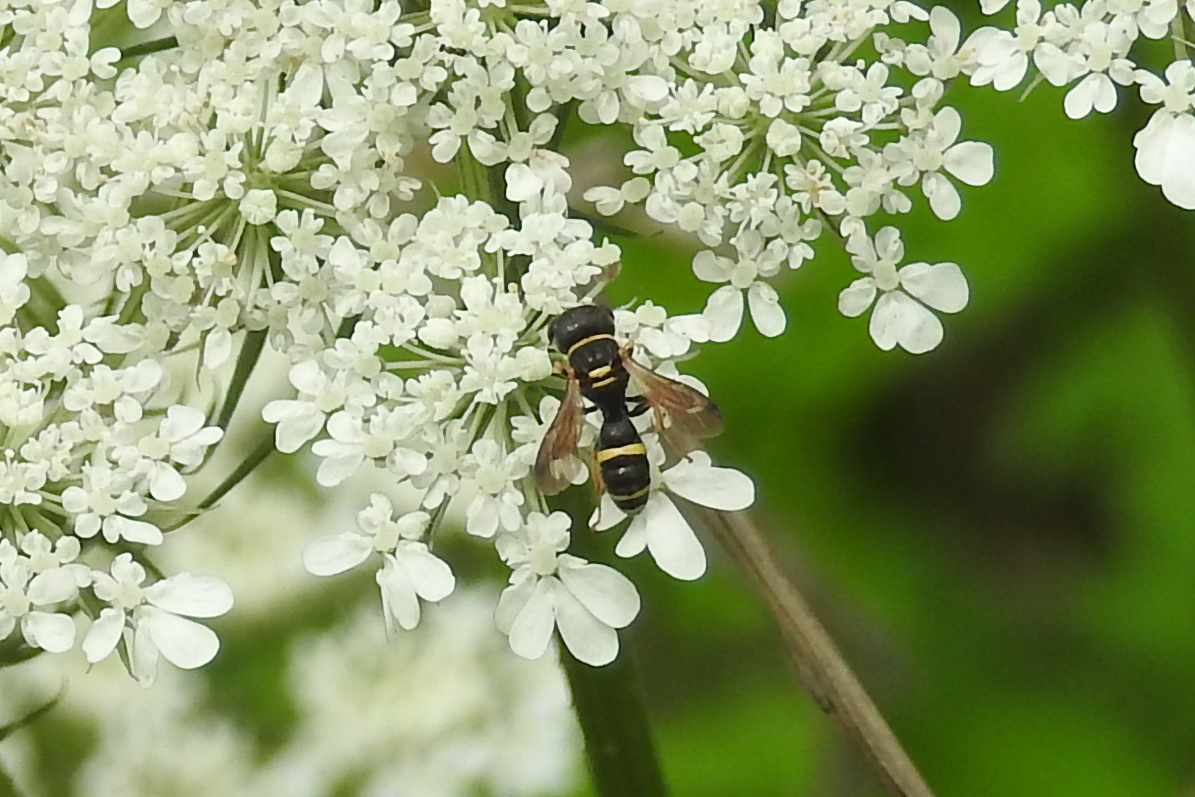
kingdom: Animalia
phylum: Arthropoda
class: Insecta
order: Hymenoptera
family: Crabronidae
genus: Ectemnius
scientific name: Ectemnius scaber
